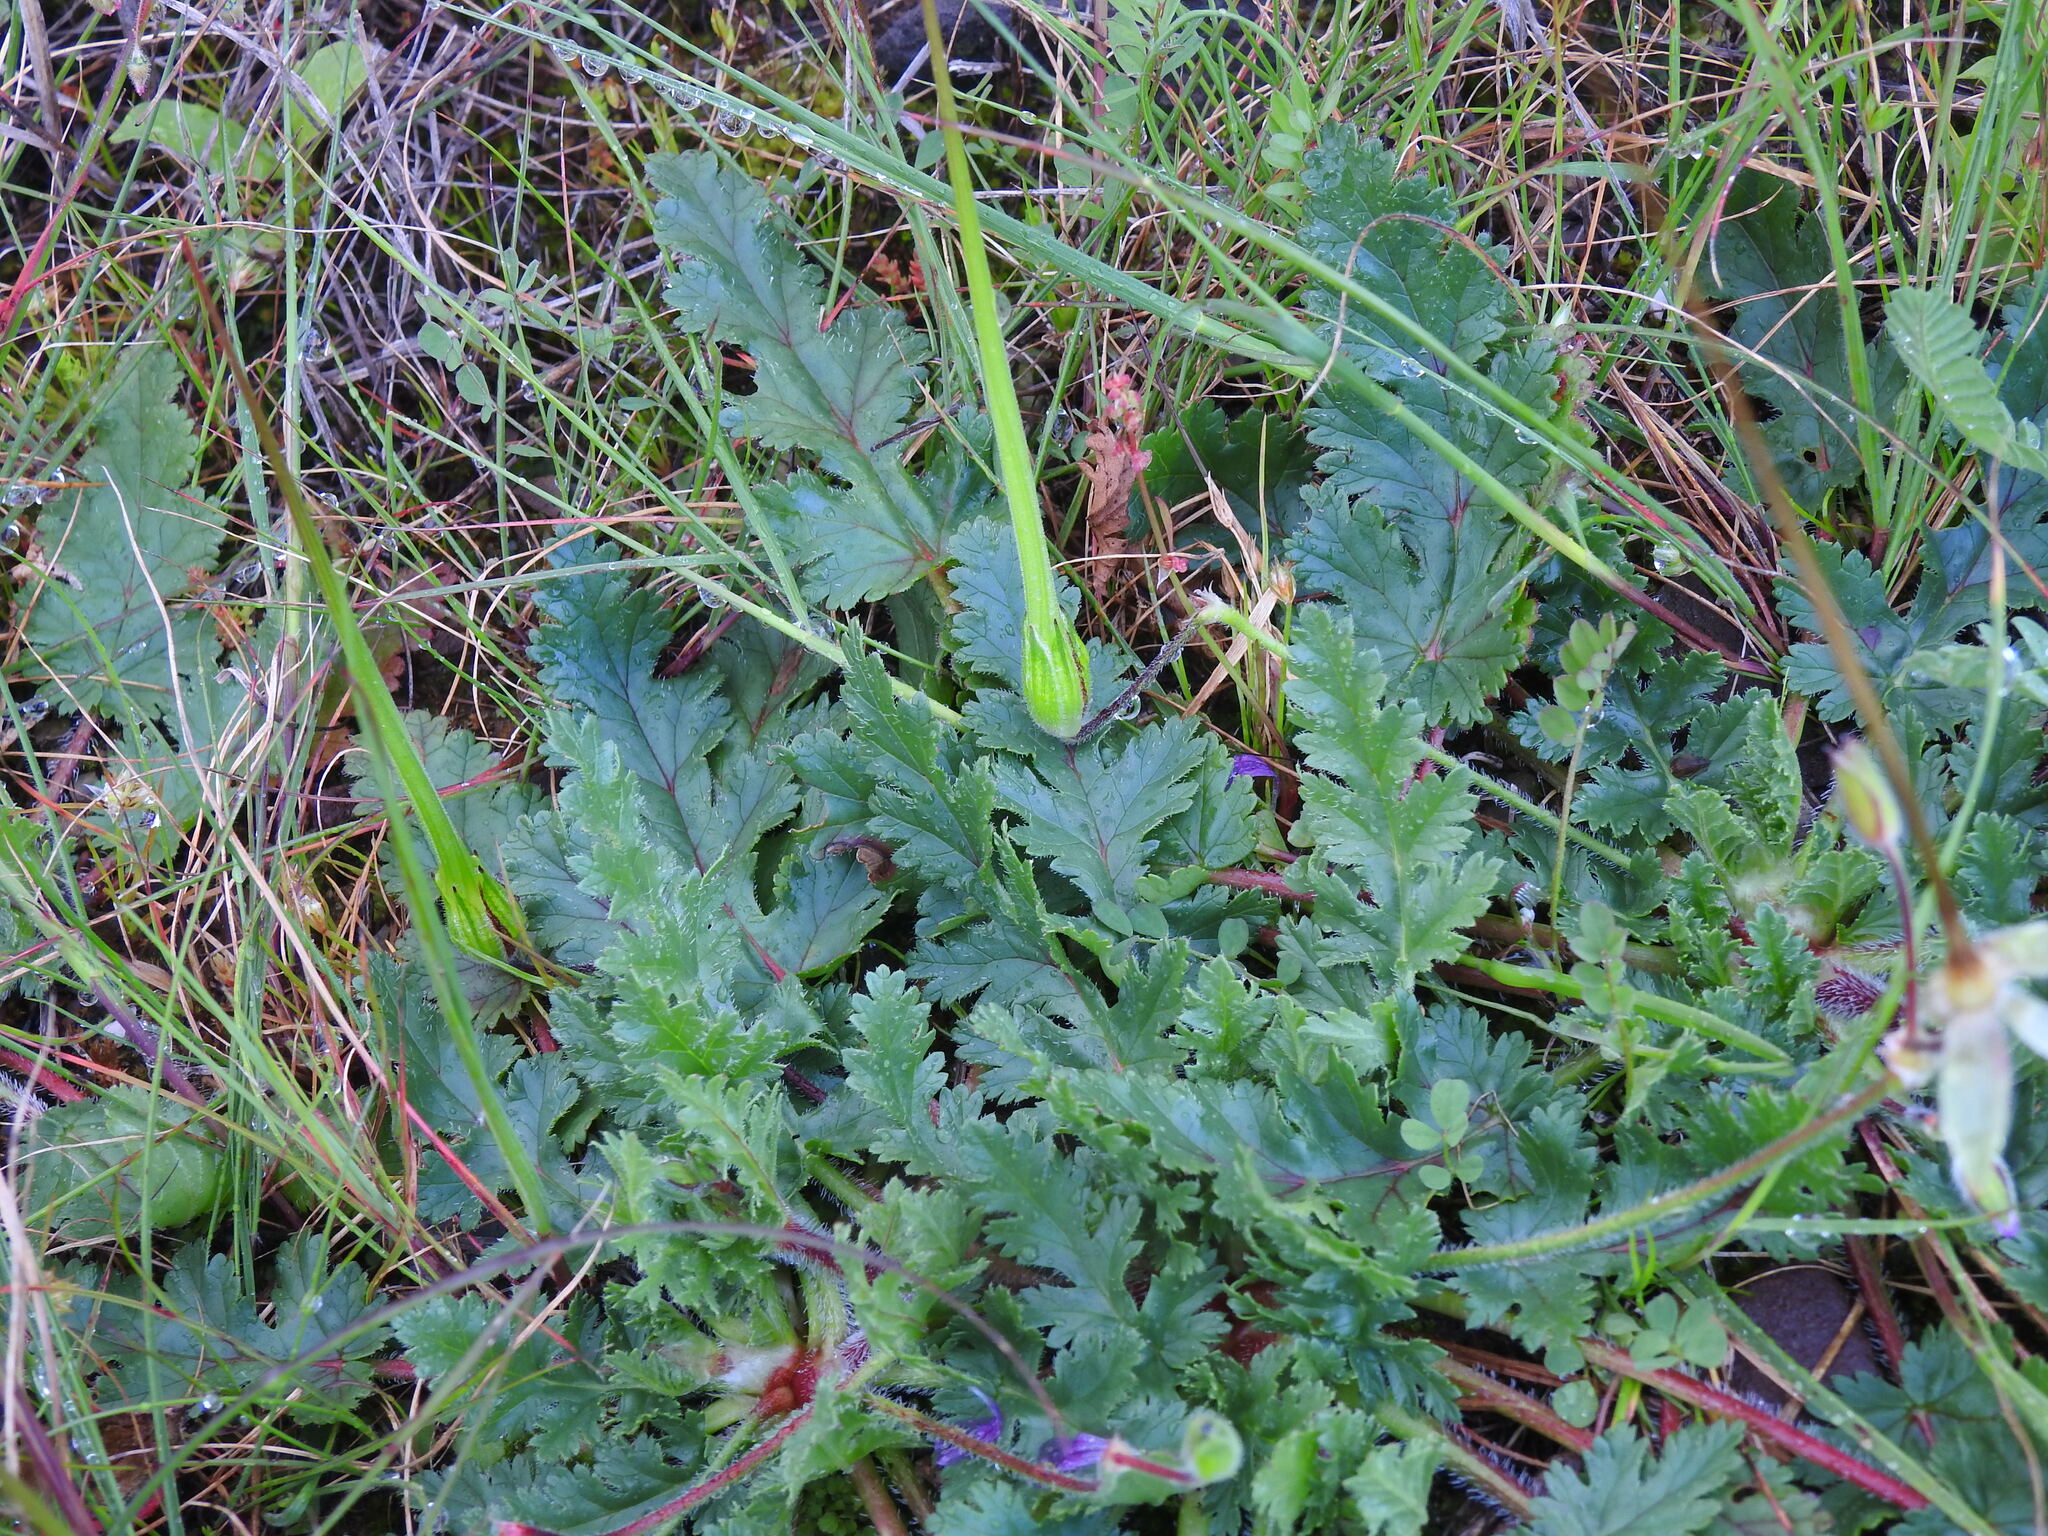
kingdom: Plantae
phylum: Tracheophyta
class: Magnoliopsida
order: Geraniales
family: Geraniaceae
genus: Erodium
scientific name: Erodium botrys
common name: Mediterranean stork's-bill
